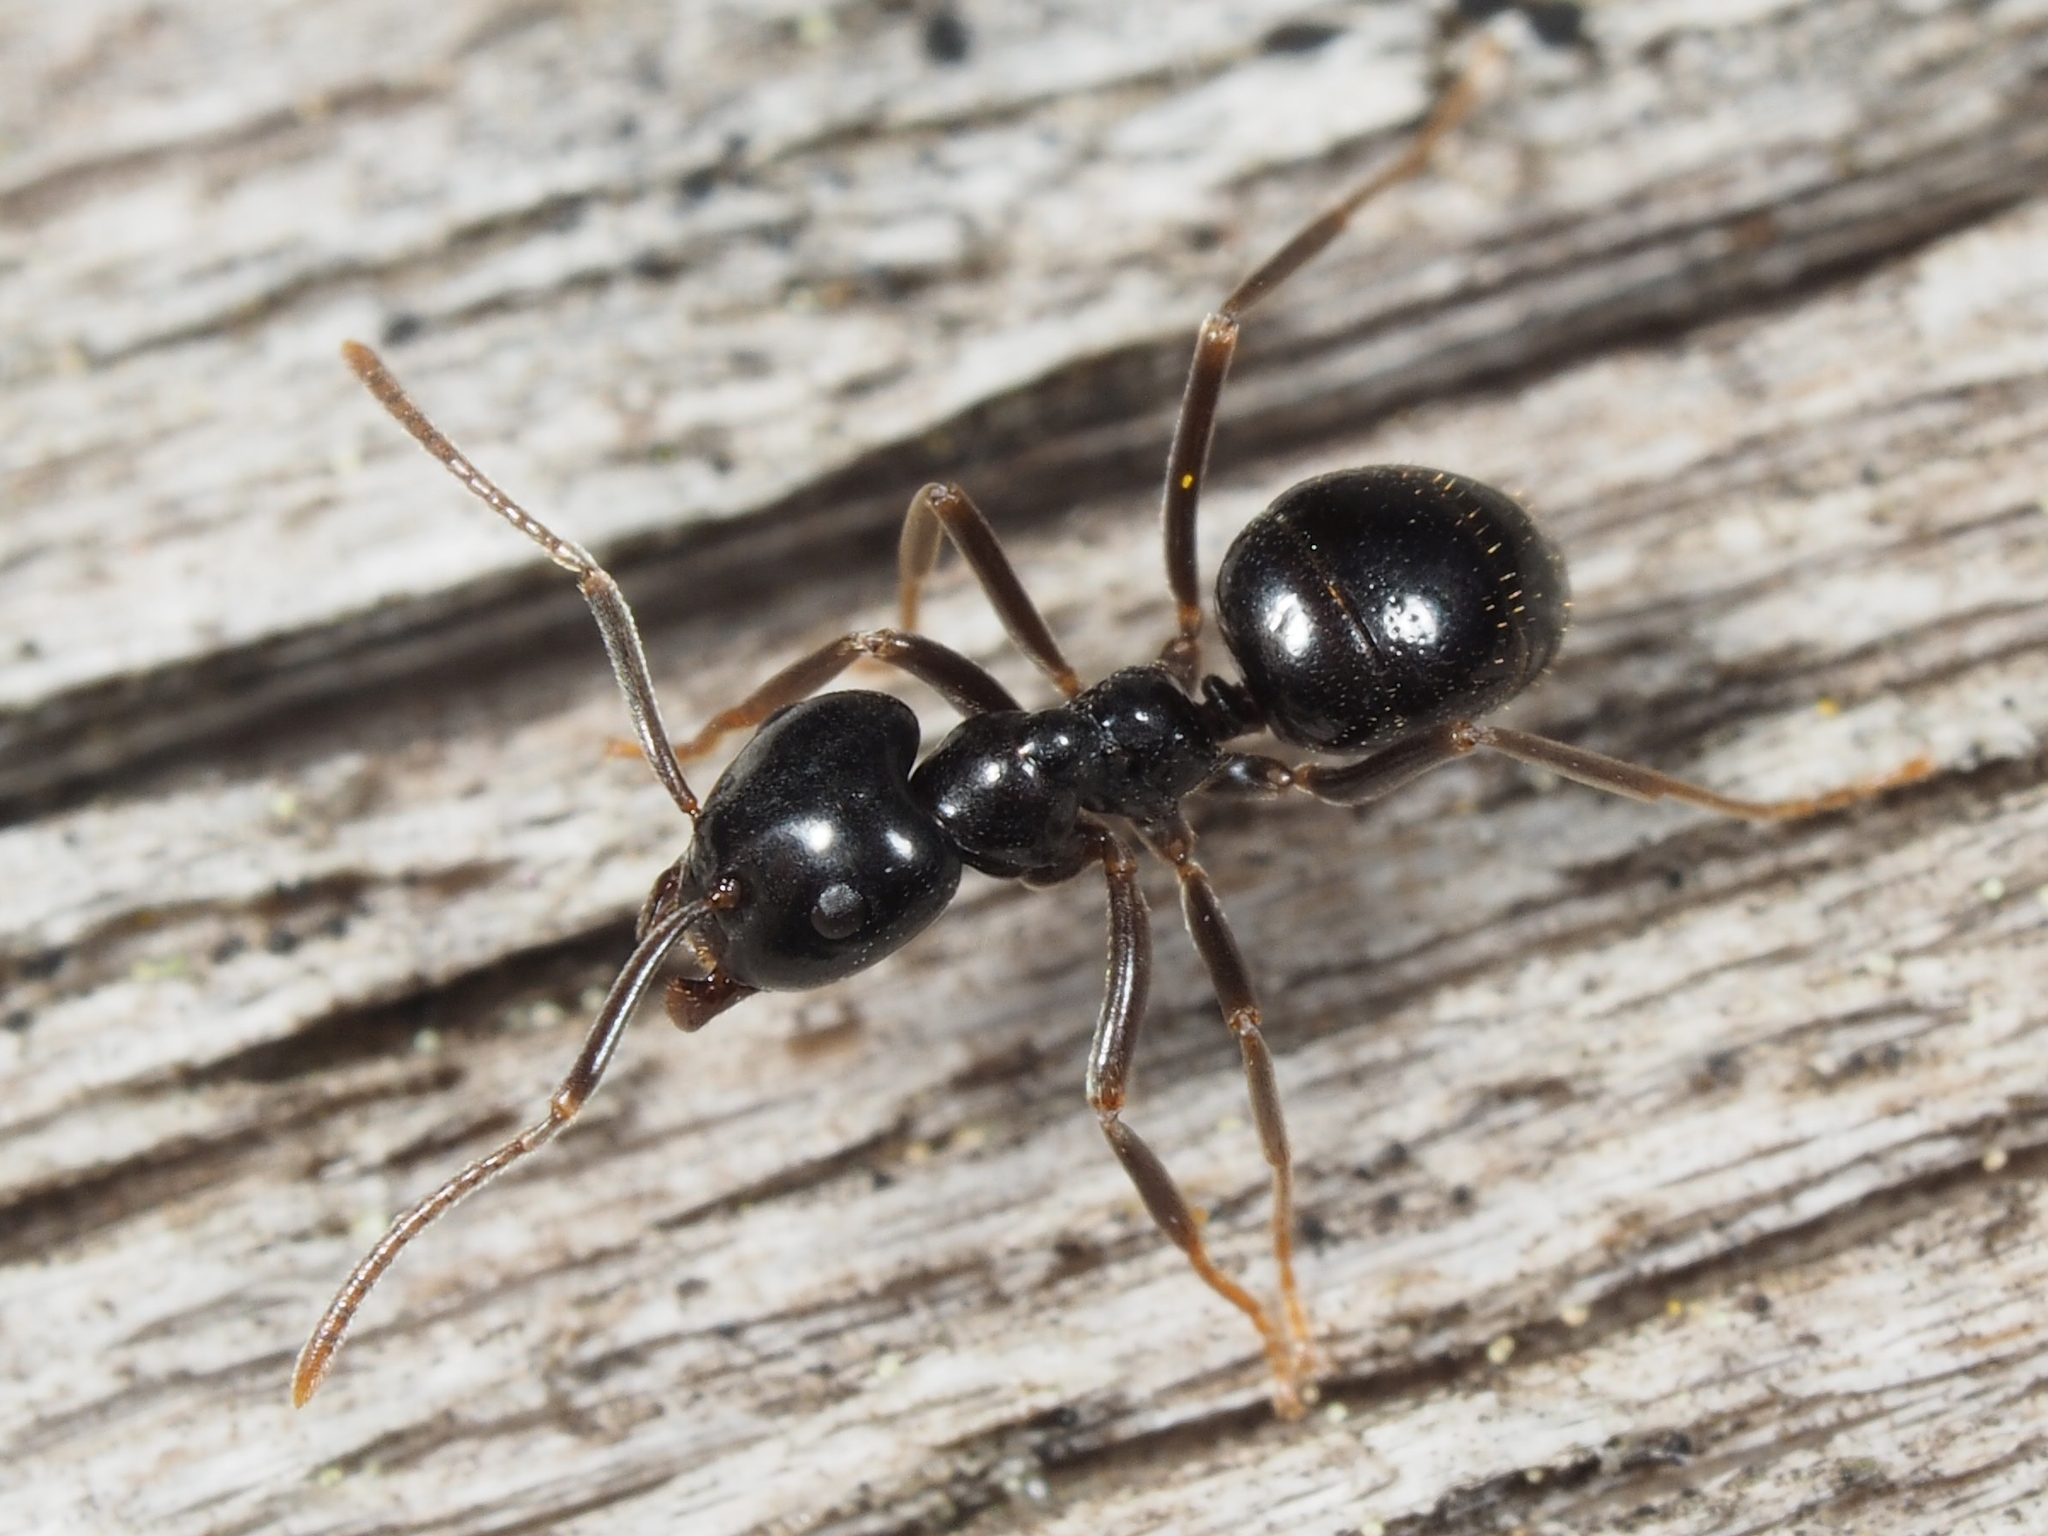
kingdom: Animalia
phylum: Arthropoda
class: Insecta
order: Hymenoptera
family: Formicidae
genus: Lasius
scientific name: Lasius fuliginosus
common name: Jet ant
